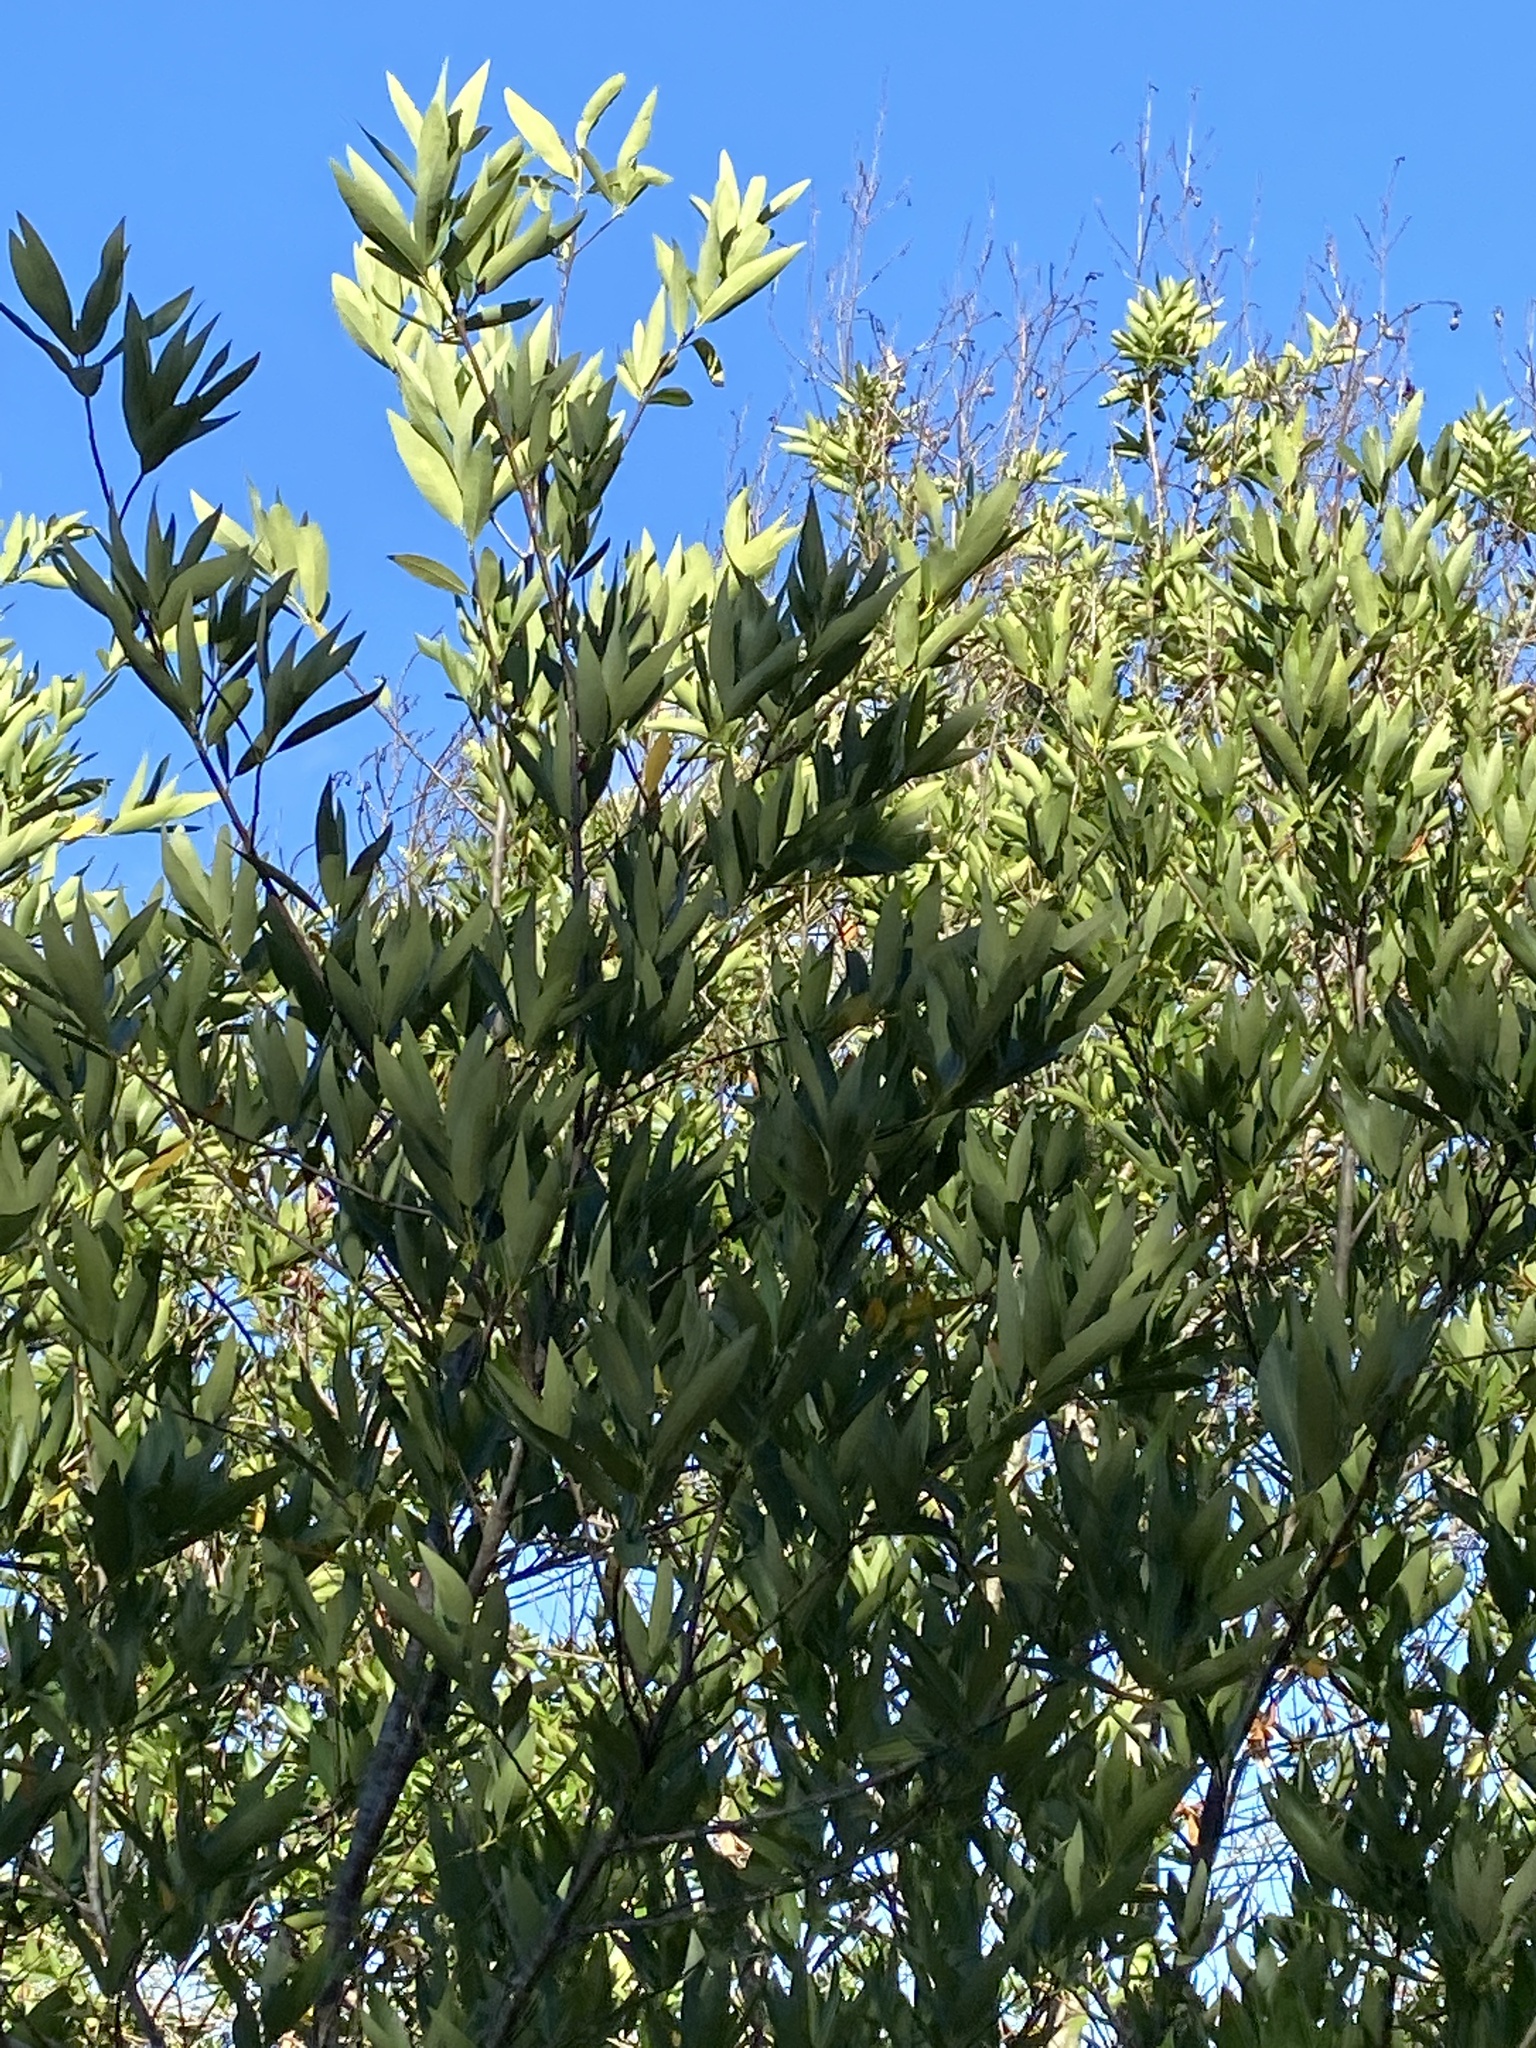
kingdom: Plantae
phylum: Tracheophyta
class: Magnoliopsida
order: Laurales
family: Lauraceae
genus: Umbellularia
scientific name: Umbellularia californica
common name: California bay
